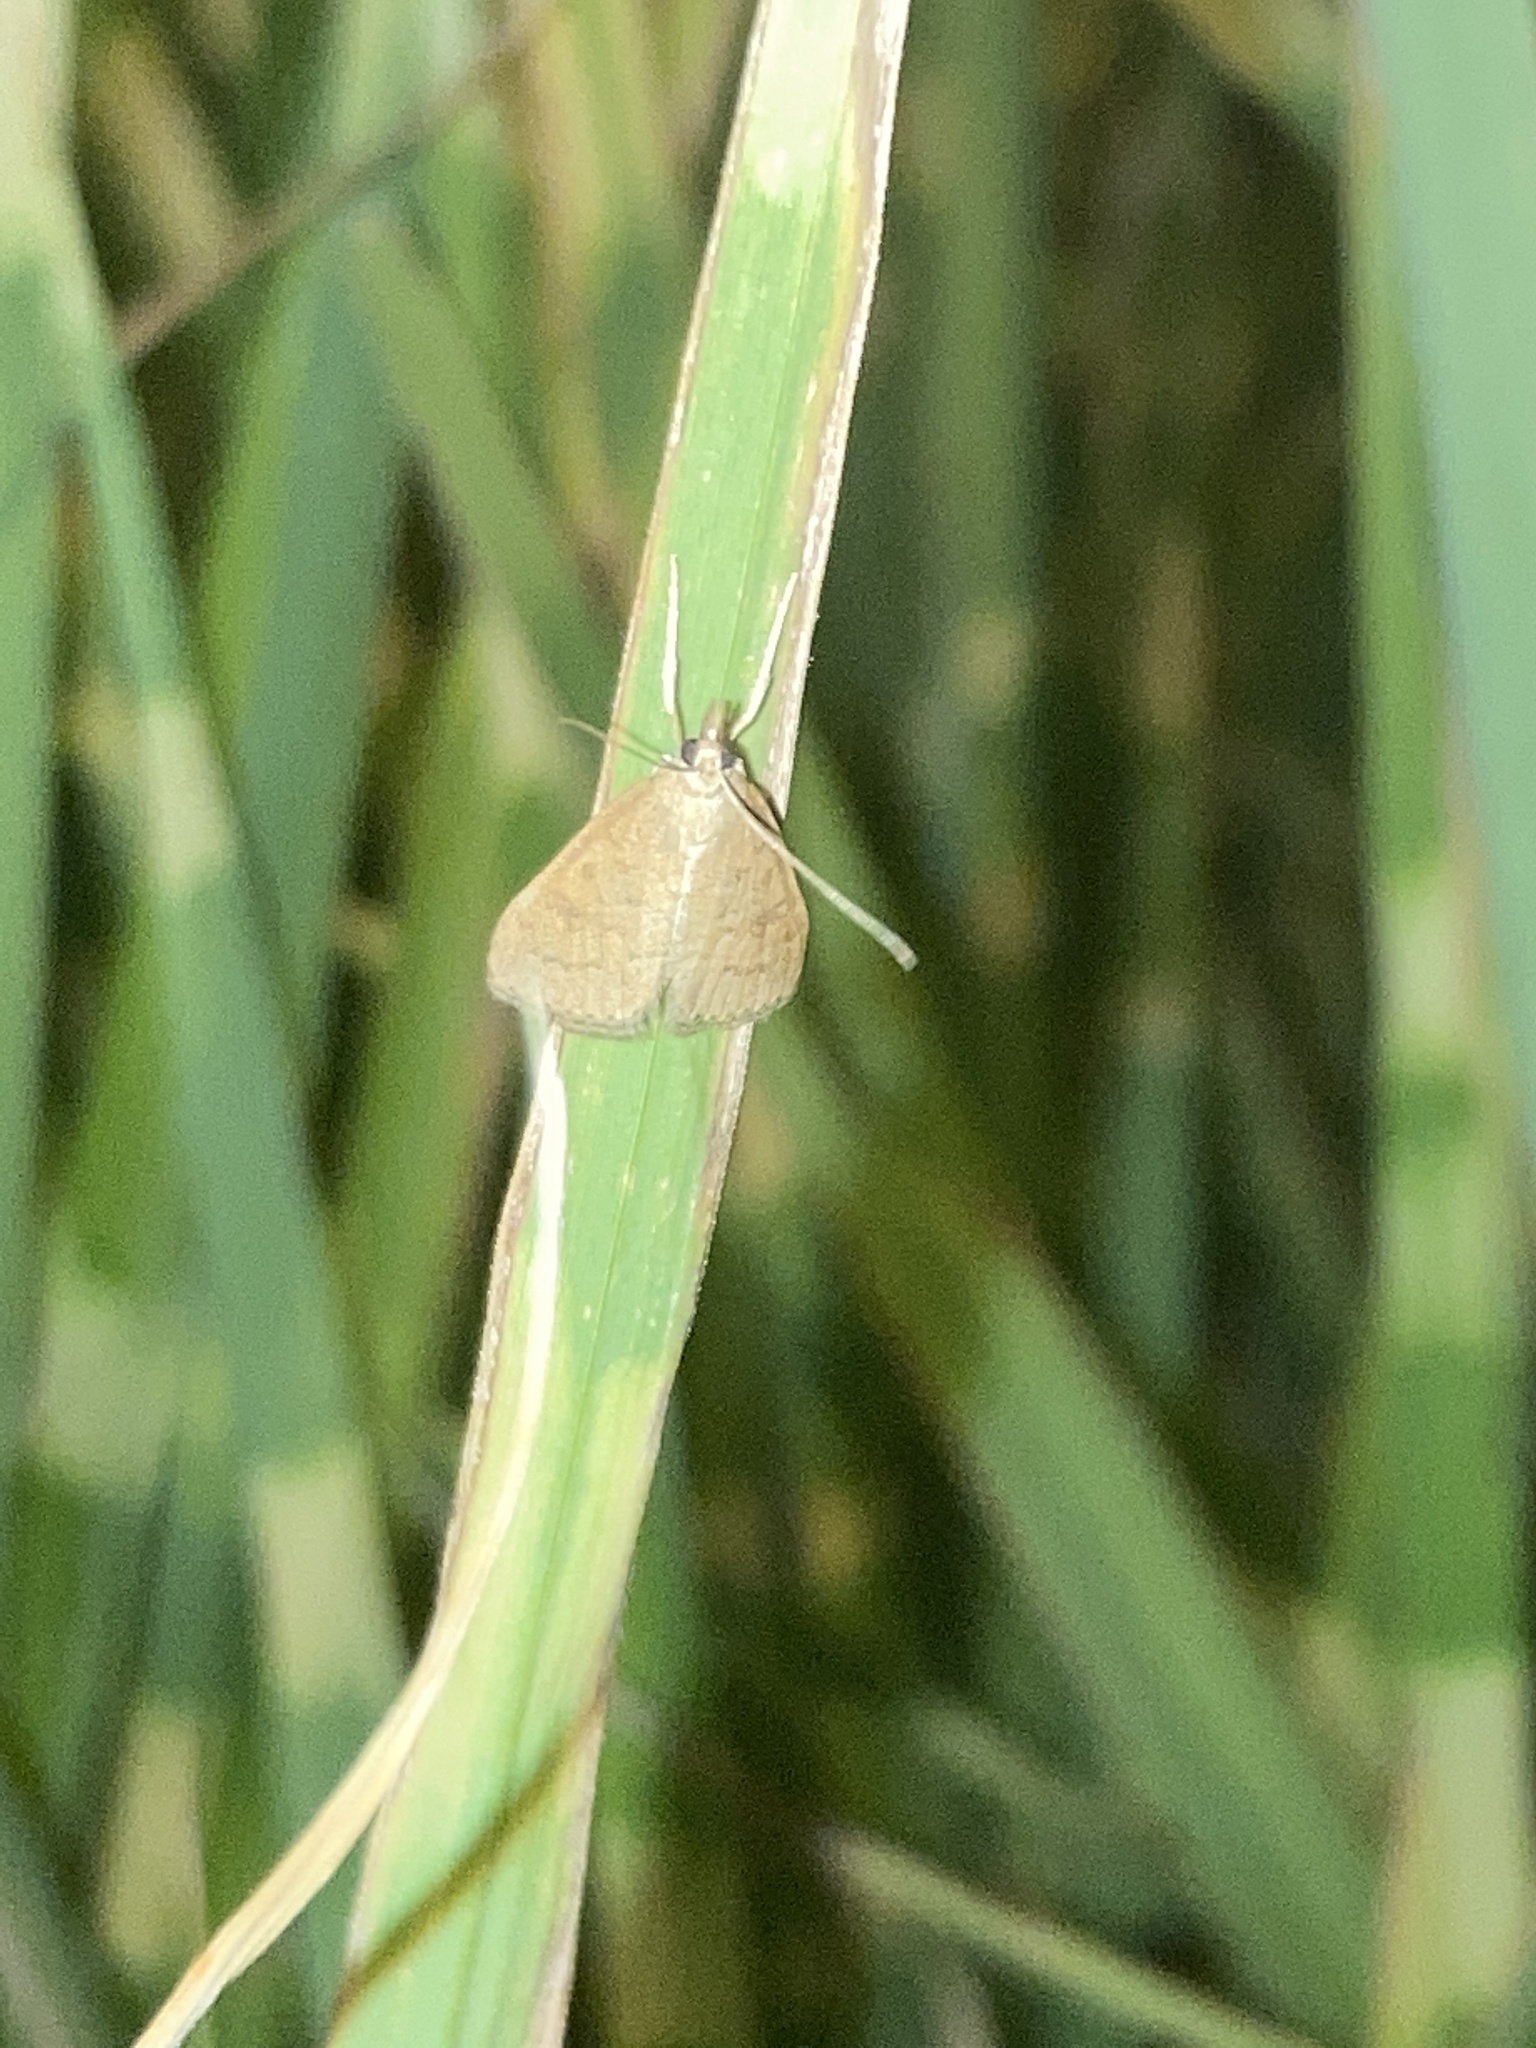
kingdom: Animalia
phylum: Arthropoda
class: Insecta
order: Lepidoptera
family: Crambidae
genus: Udea
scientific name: Udea rubigalis
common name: Celery leaftier moth
